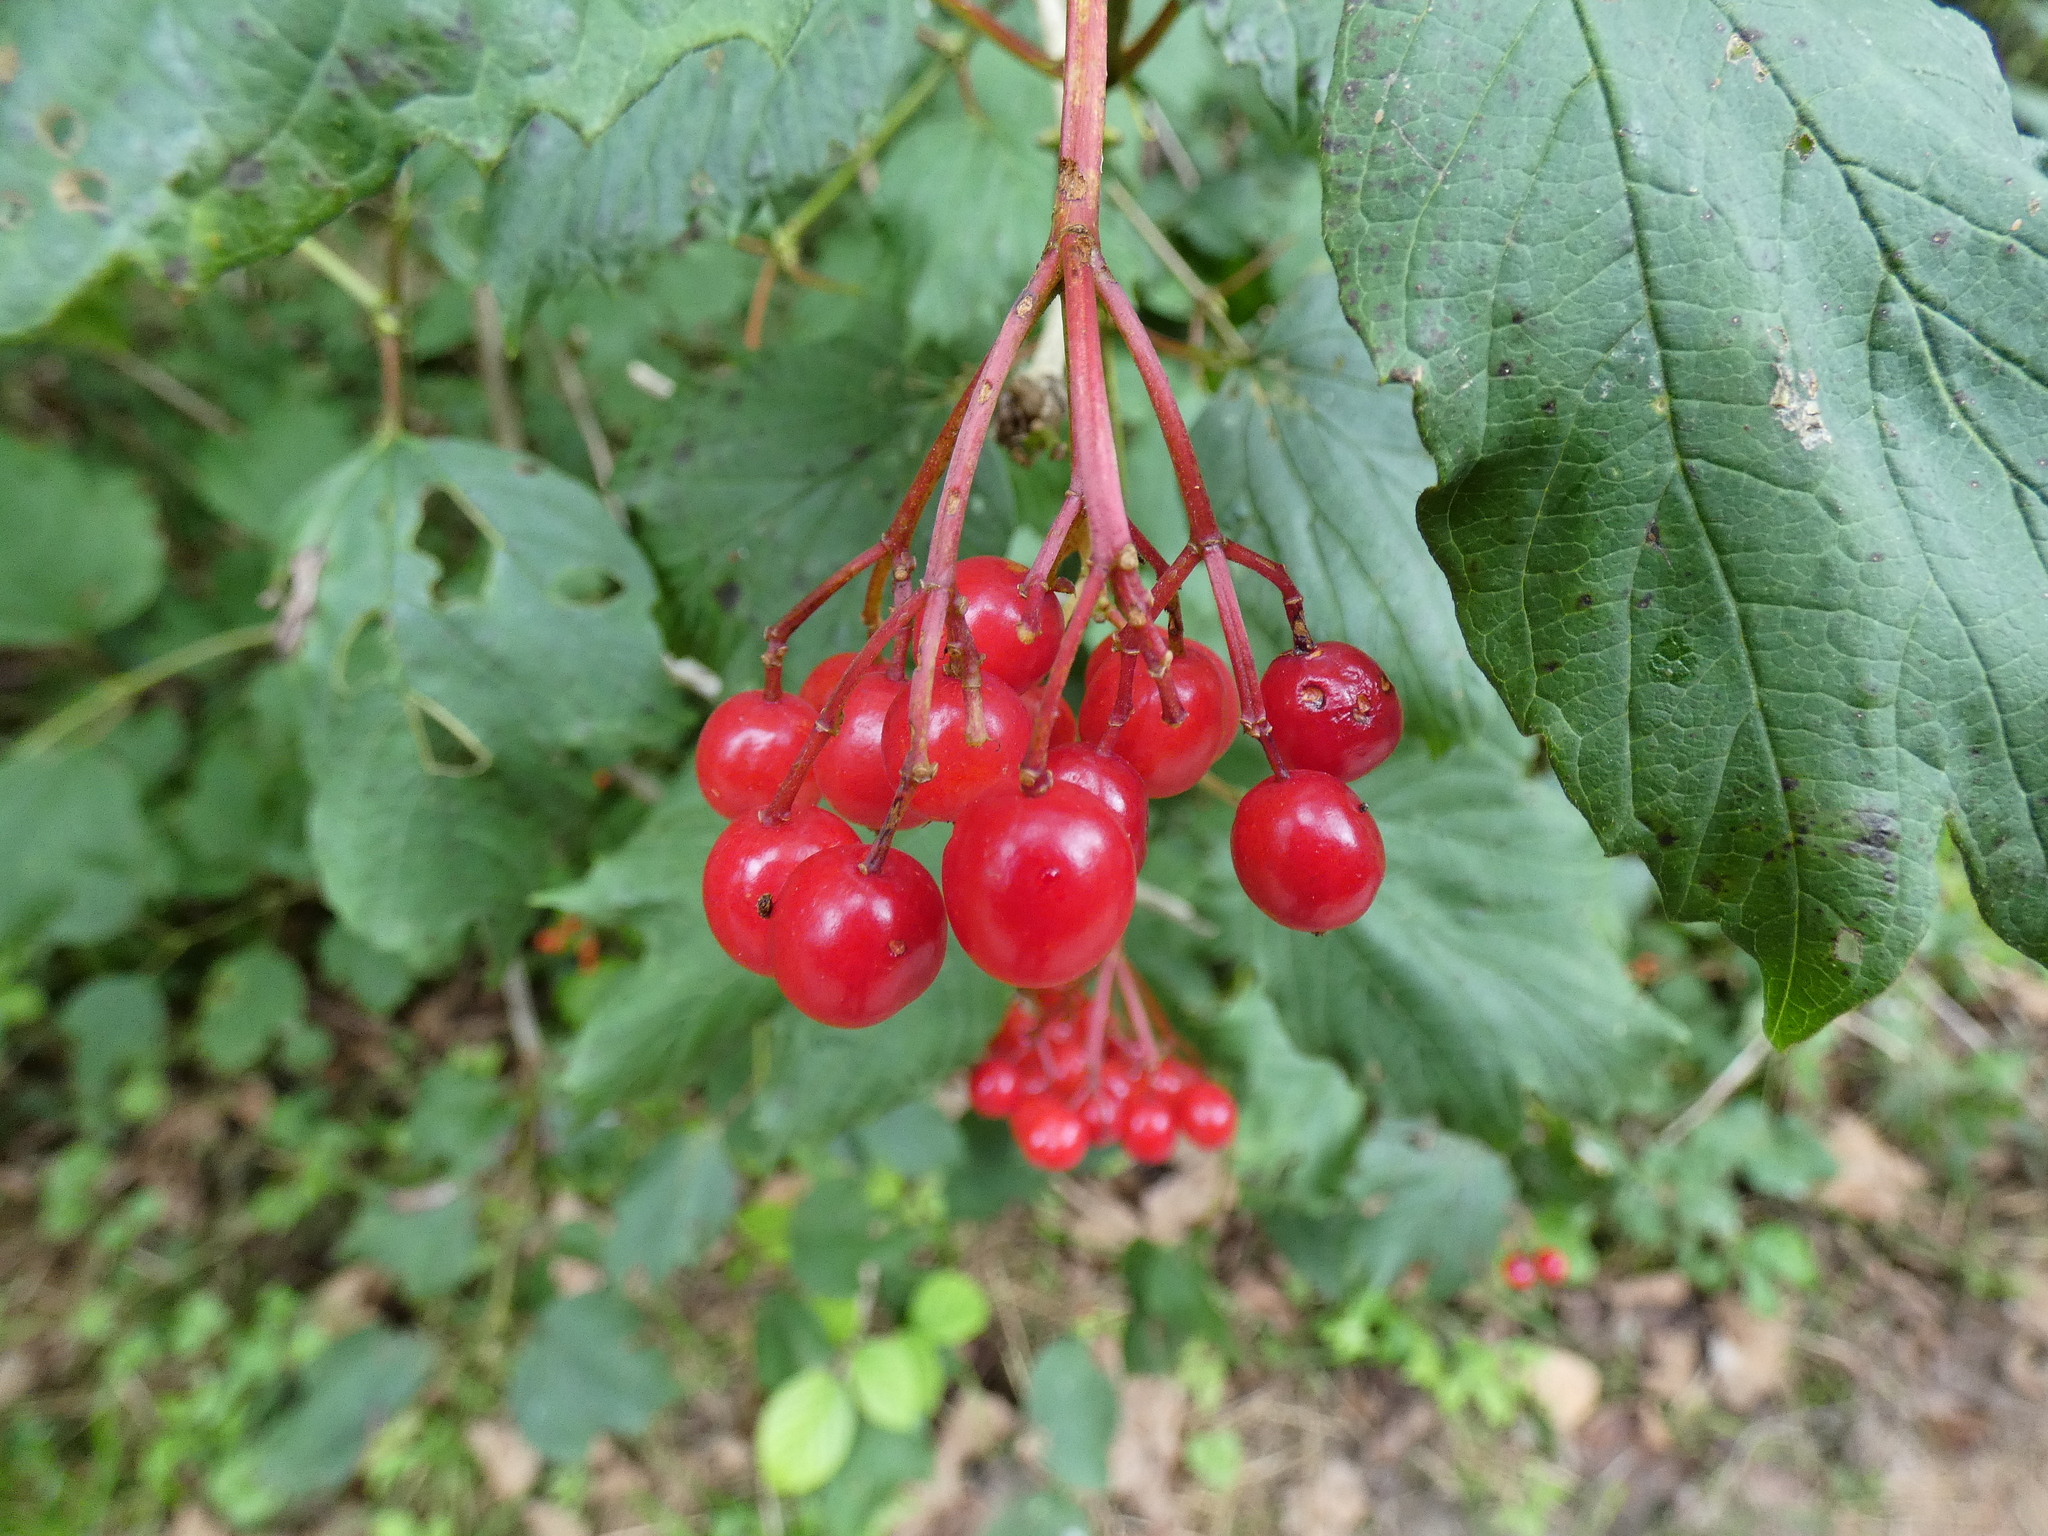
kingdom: Plantae
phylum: Tracheophyta
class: Magnoliopsida
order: Dipsacales
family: Viburnaceae
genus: Viburnum
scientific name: Viburnum opulus
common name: Guelder-rose
